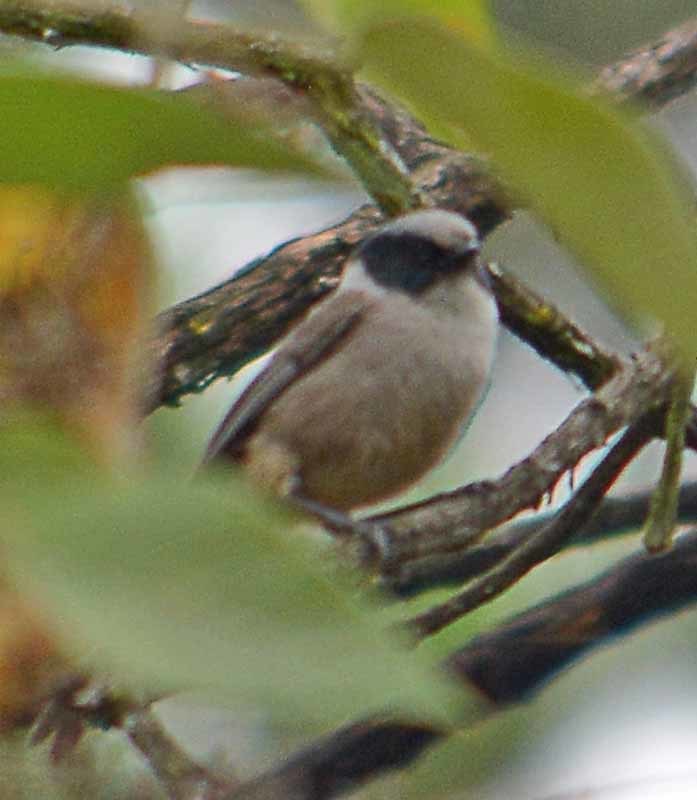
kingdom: Animalia
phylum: Chordata
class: Aves
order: Passeriformes
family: Aegithalidae
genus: Psaltriparus
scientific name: Psaltriparus minimus
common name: American bushtit
